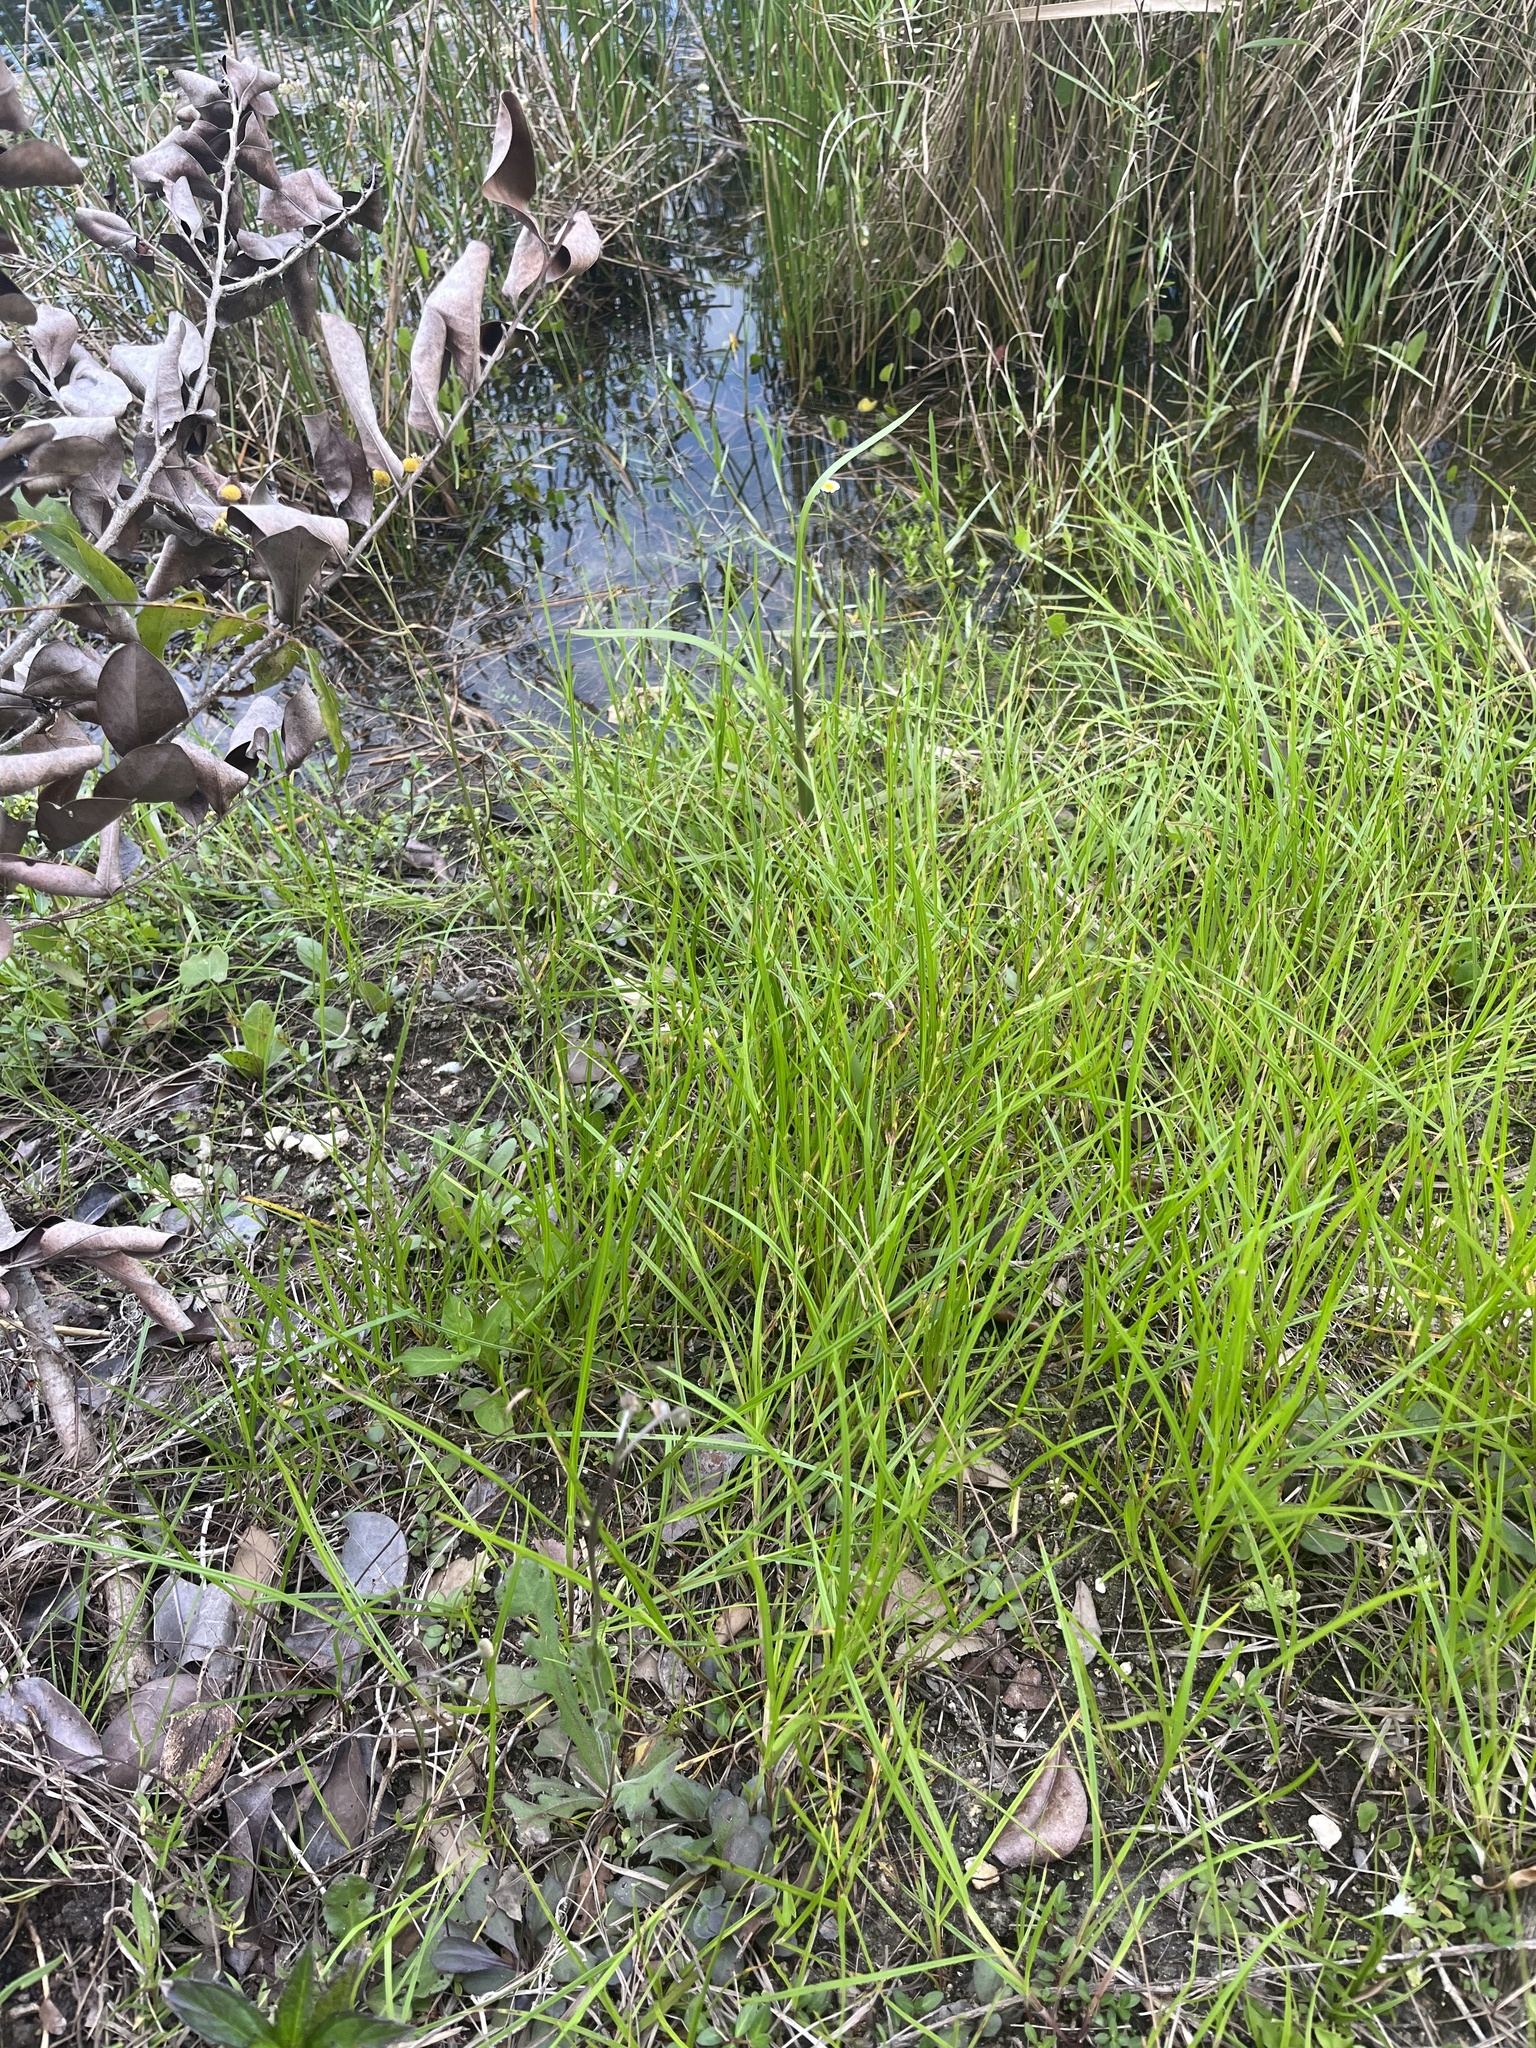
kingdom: Plantae
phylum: Tracheophyta
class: Liliopsida
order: Poales
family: Cyperaceae
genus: Scleria
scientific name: Scleria verticillata
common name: Low nutrush
